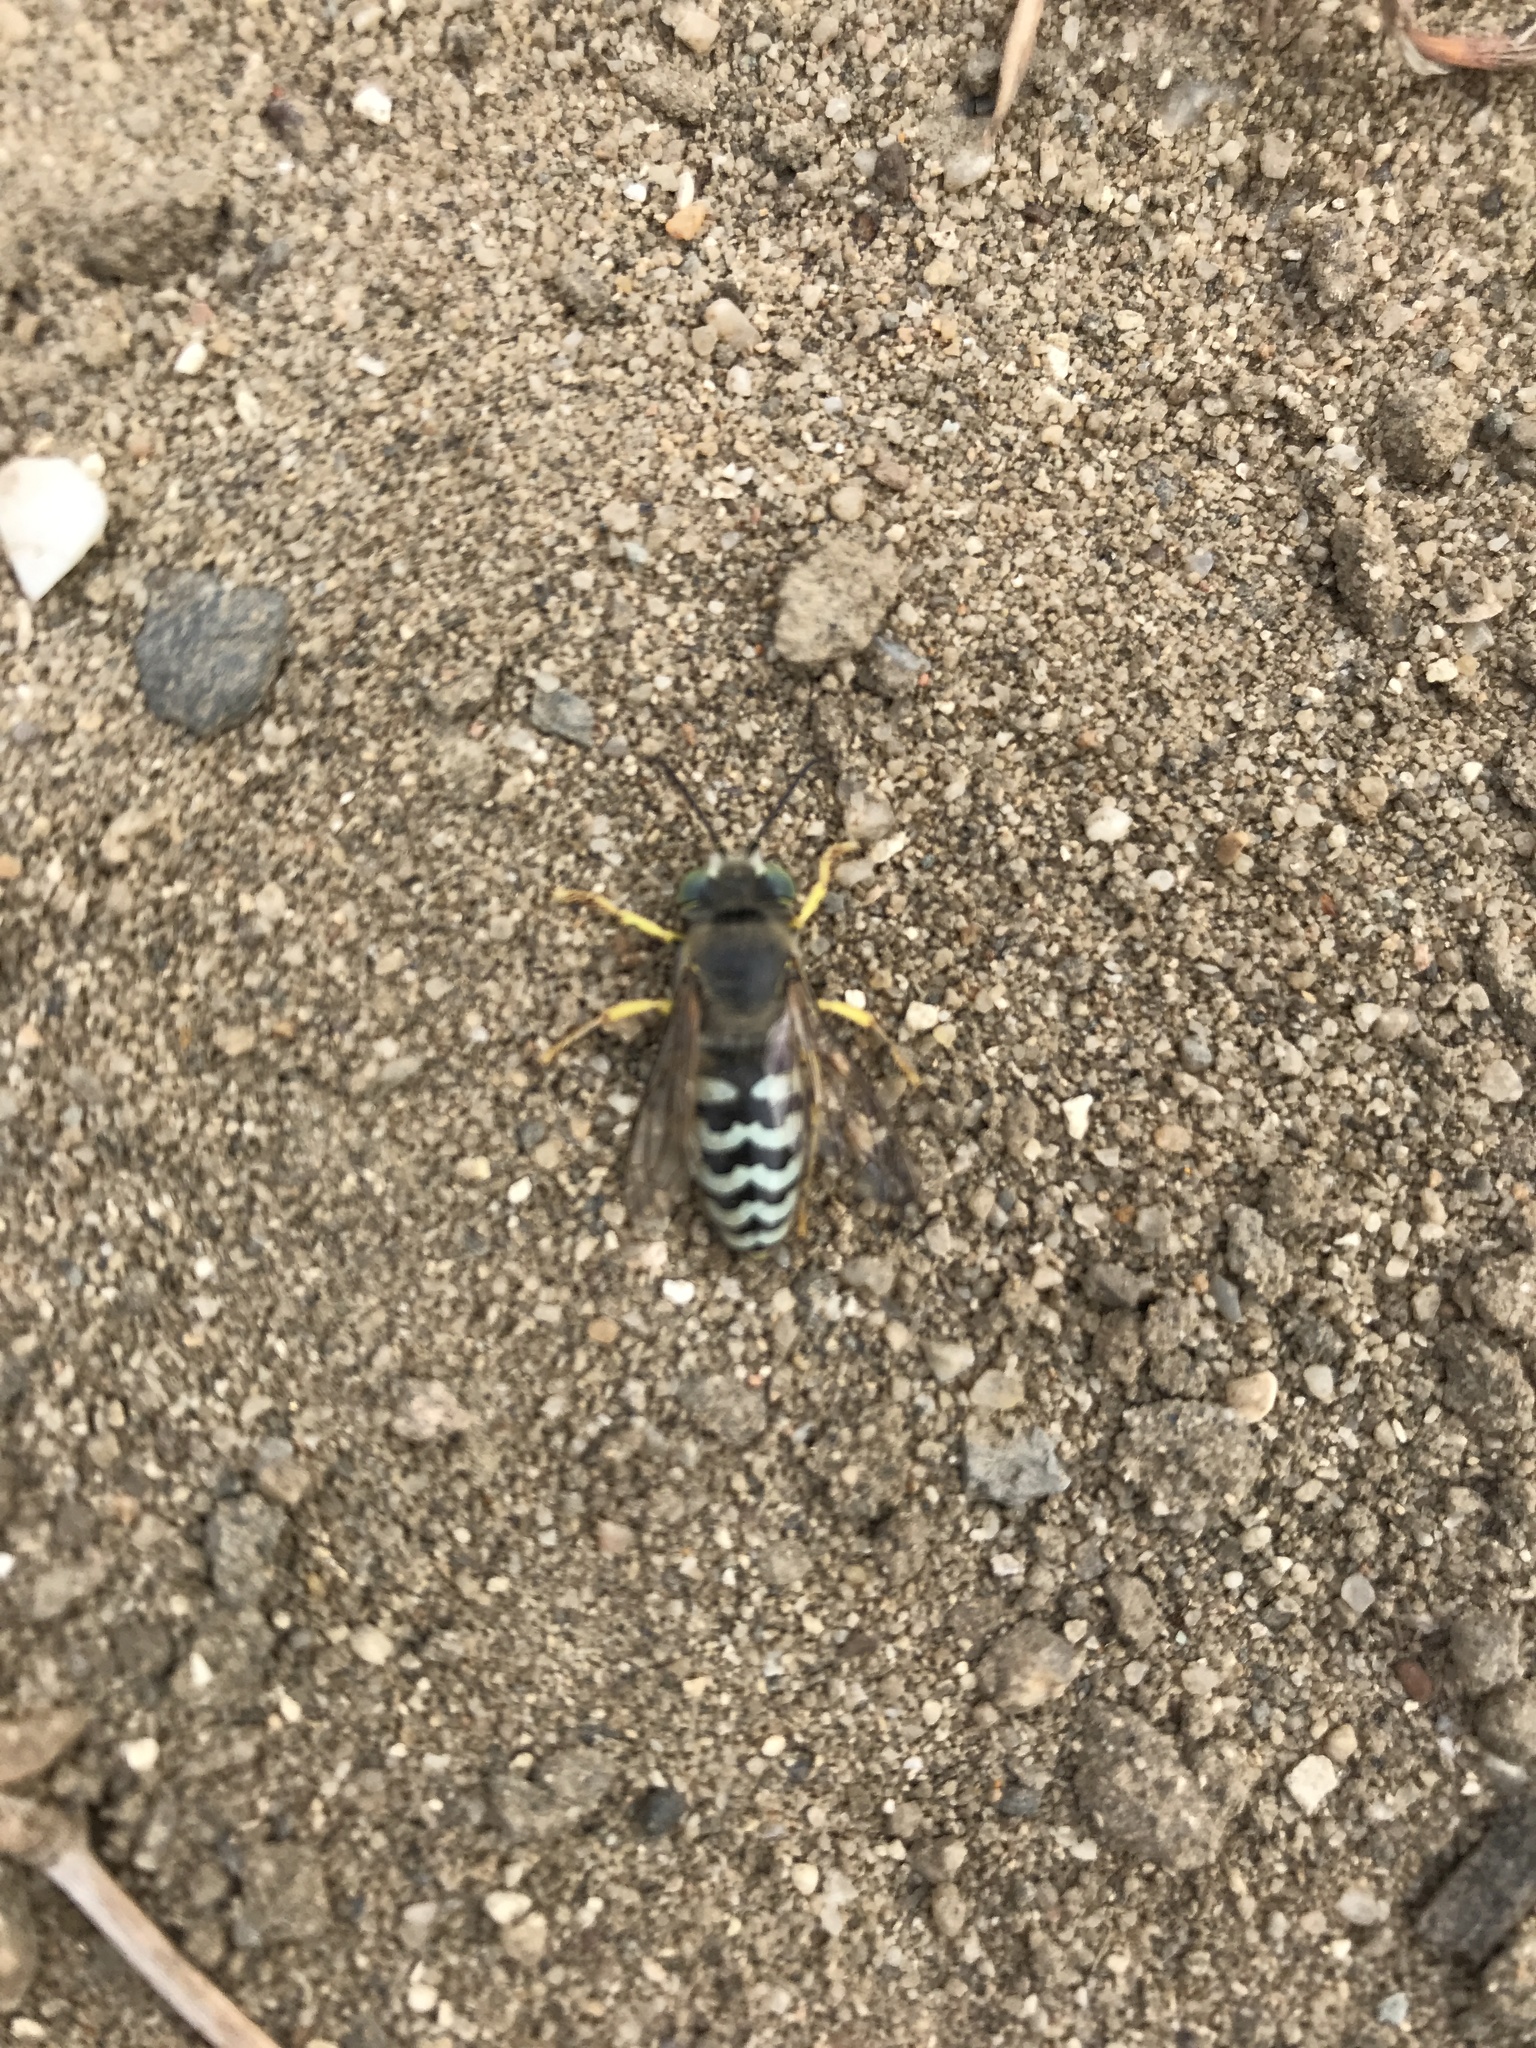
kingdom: Animalia
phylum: Arthropoda
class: Insecta
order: Hymenoptera
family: Crabronidae
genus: Bembix
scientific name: Bembix americana
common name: American sand wasp
